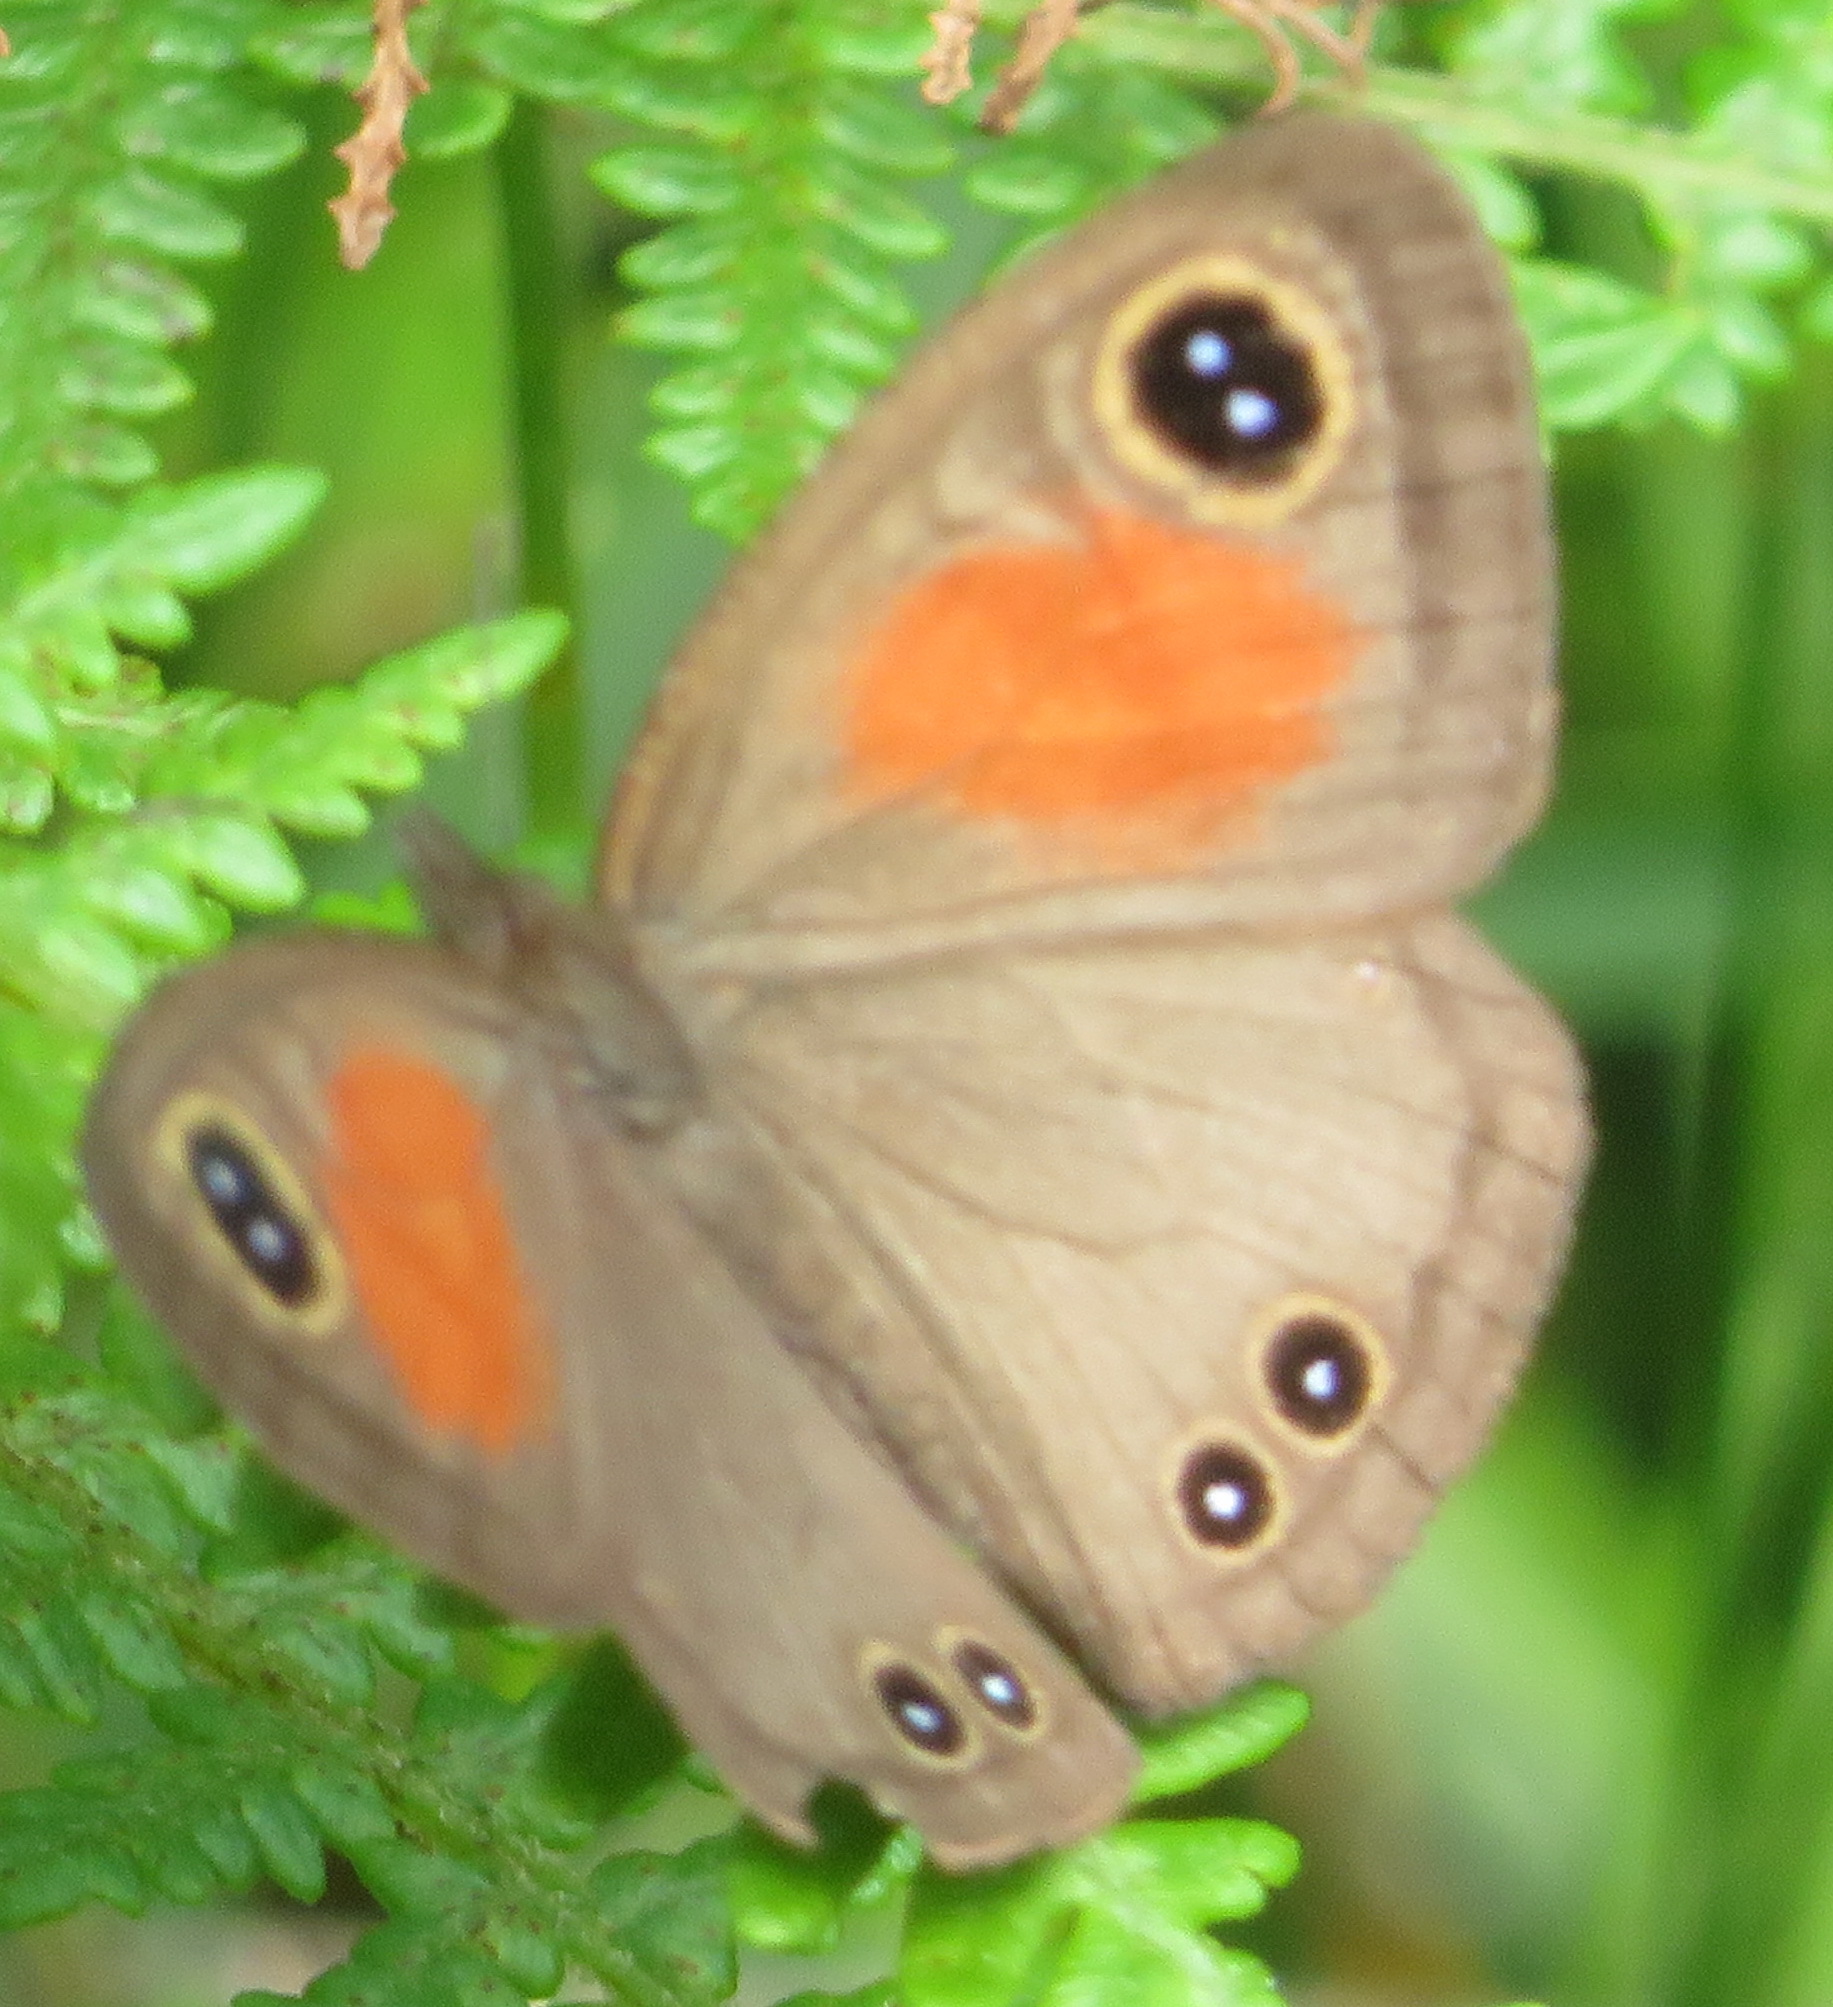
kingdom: Animalia
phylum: Arthropoda
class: Insecta
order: Lepidoptera
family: Nymphalidae
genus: Cassionympha
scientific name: Cassionympha cassius
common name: Rainforest brown
